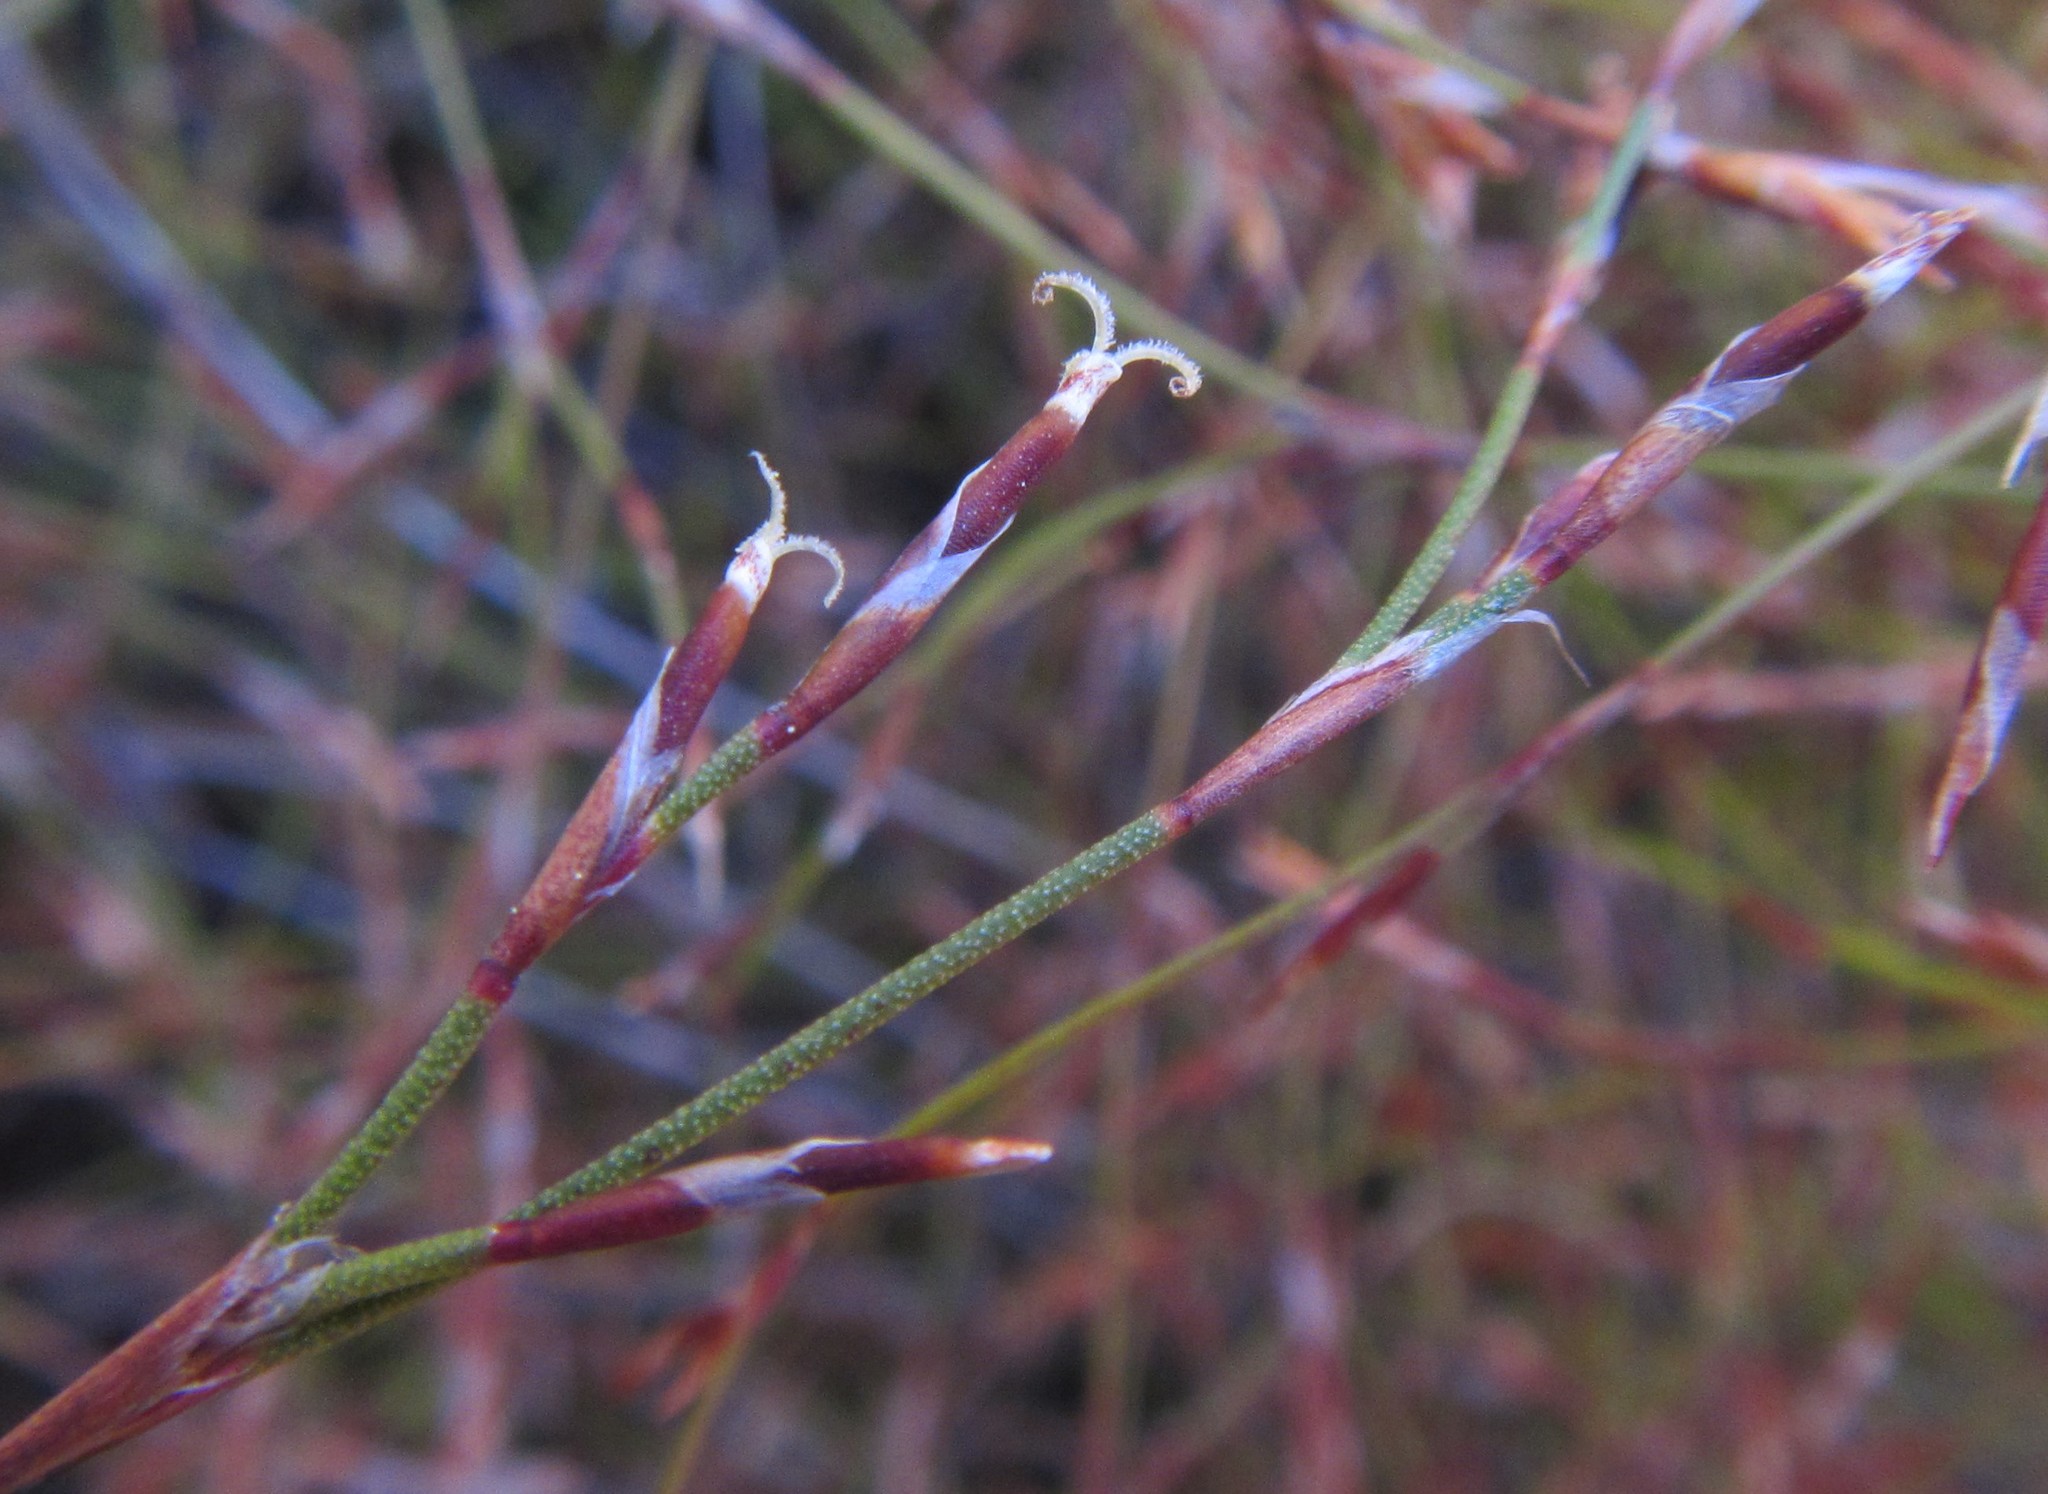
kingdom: Plantae
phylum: Tracheophyta
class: Liliopsida
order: Poales
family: Restionaceae
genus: Restio
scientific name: Restio versatilis
